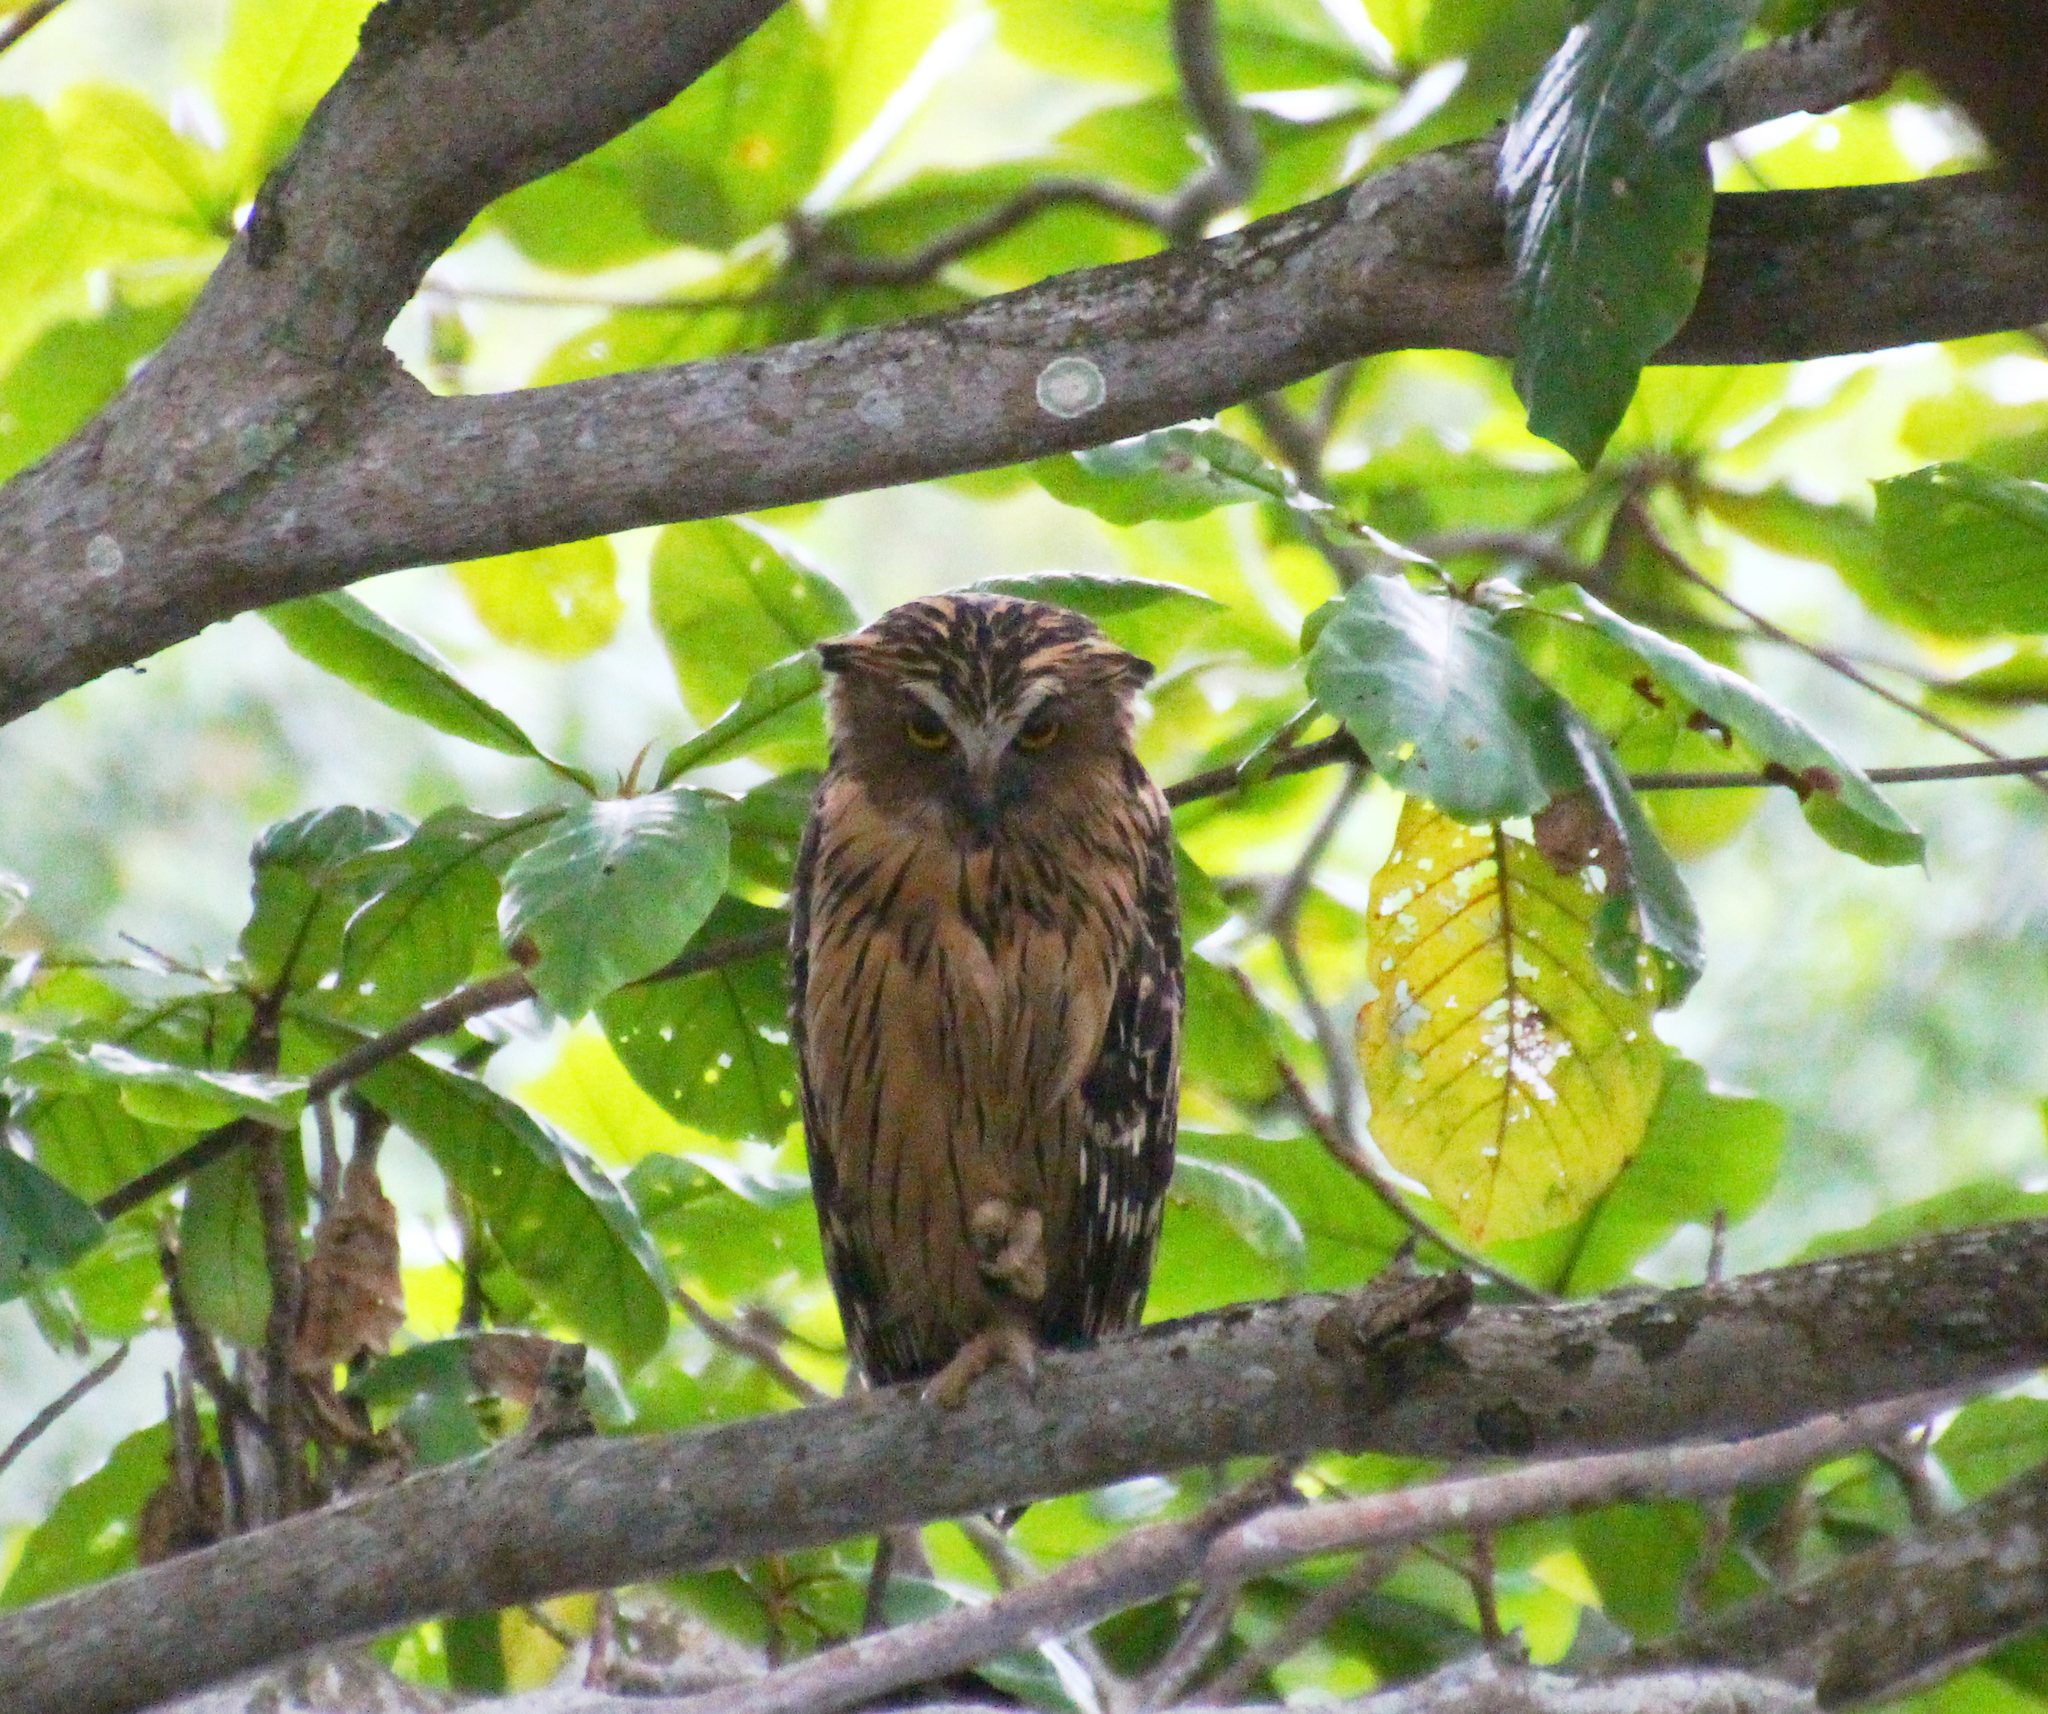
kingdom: Animalia
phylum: Chordata
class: Aves
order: Strigiformes
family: Strigidae
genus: Ketupa
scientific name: Ketupa ketupu
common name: Buffy fish-owl
